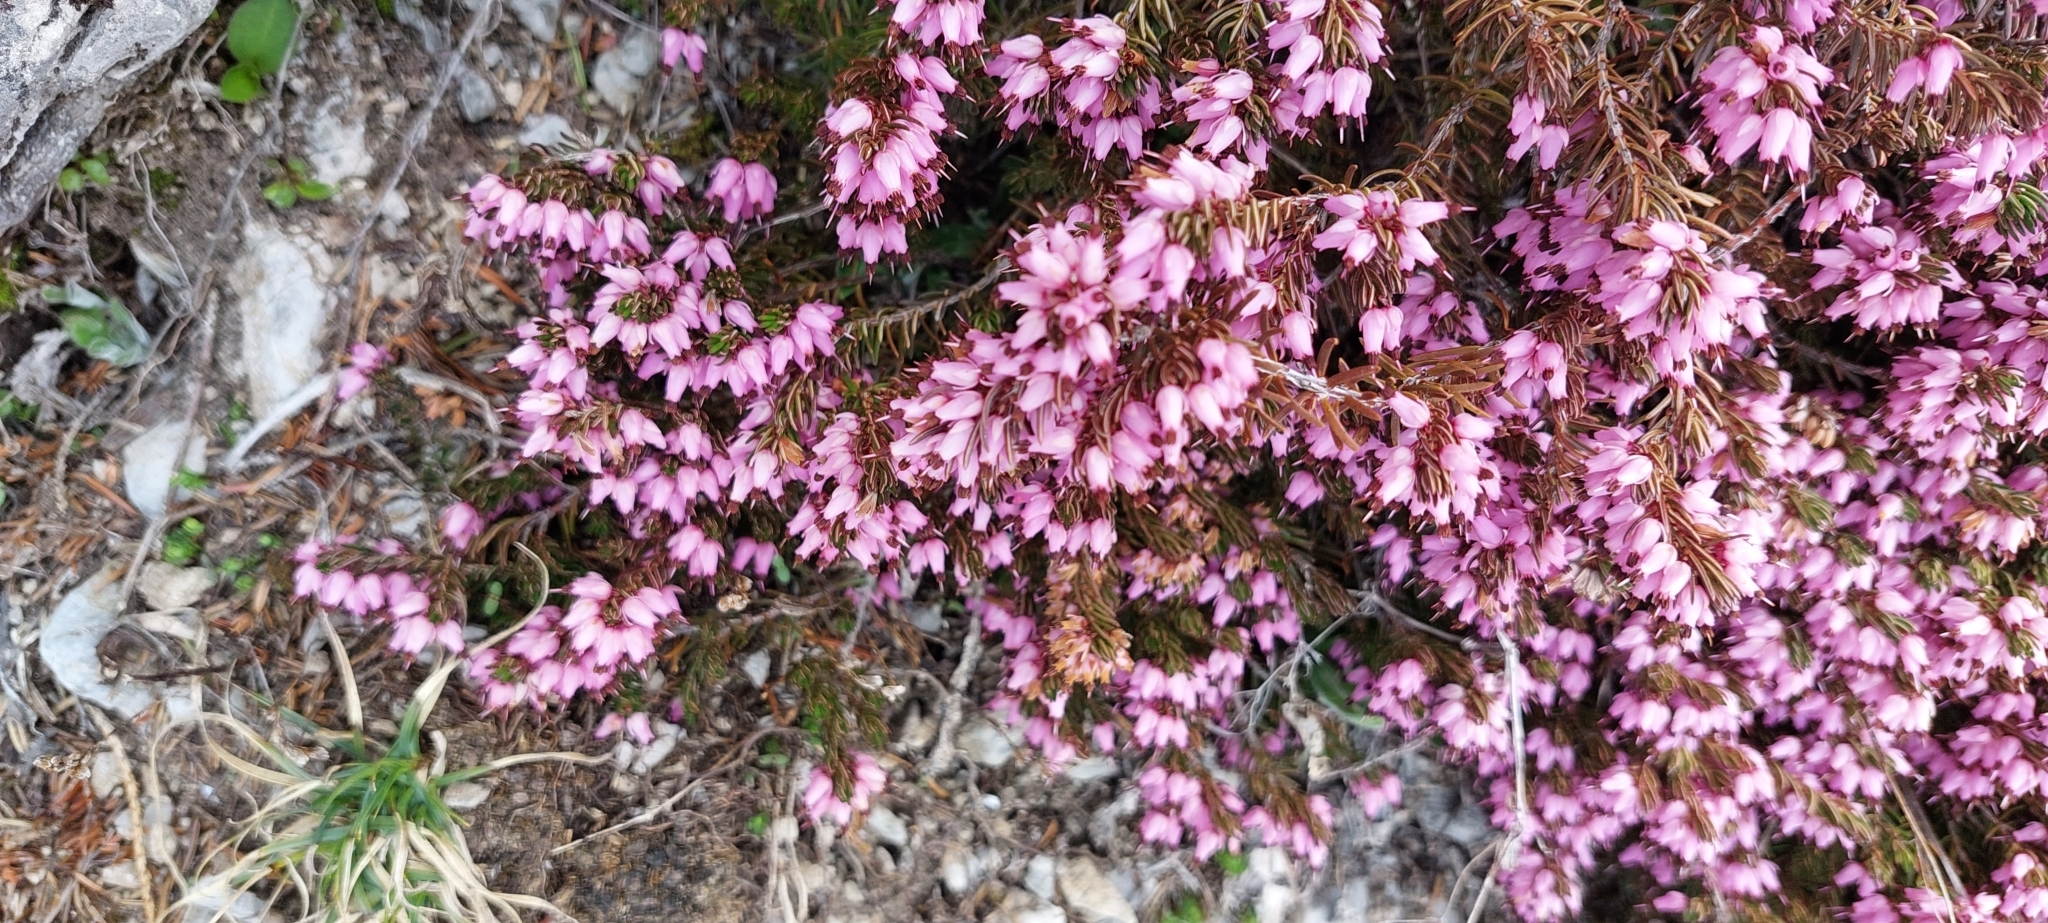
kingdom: Plantae
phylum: Tracheophyta
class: Magnoliopsida
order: Ericales
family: Ericaceae
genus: Erica
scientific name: Erica carnea
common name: Winter heath
